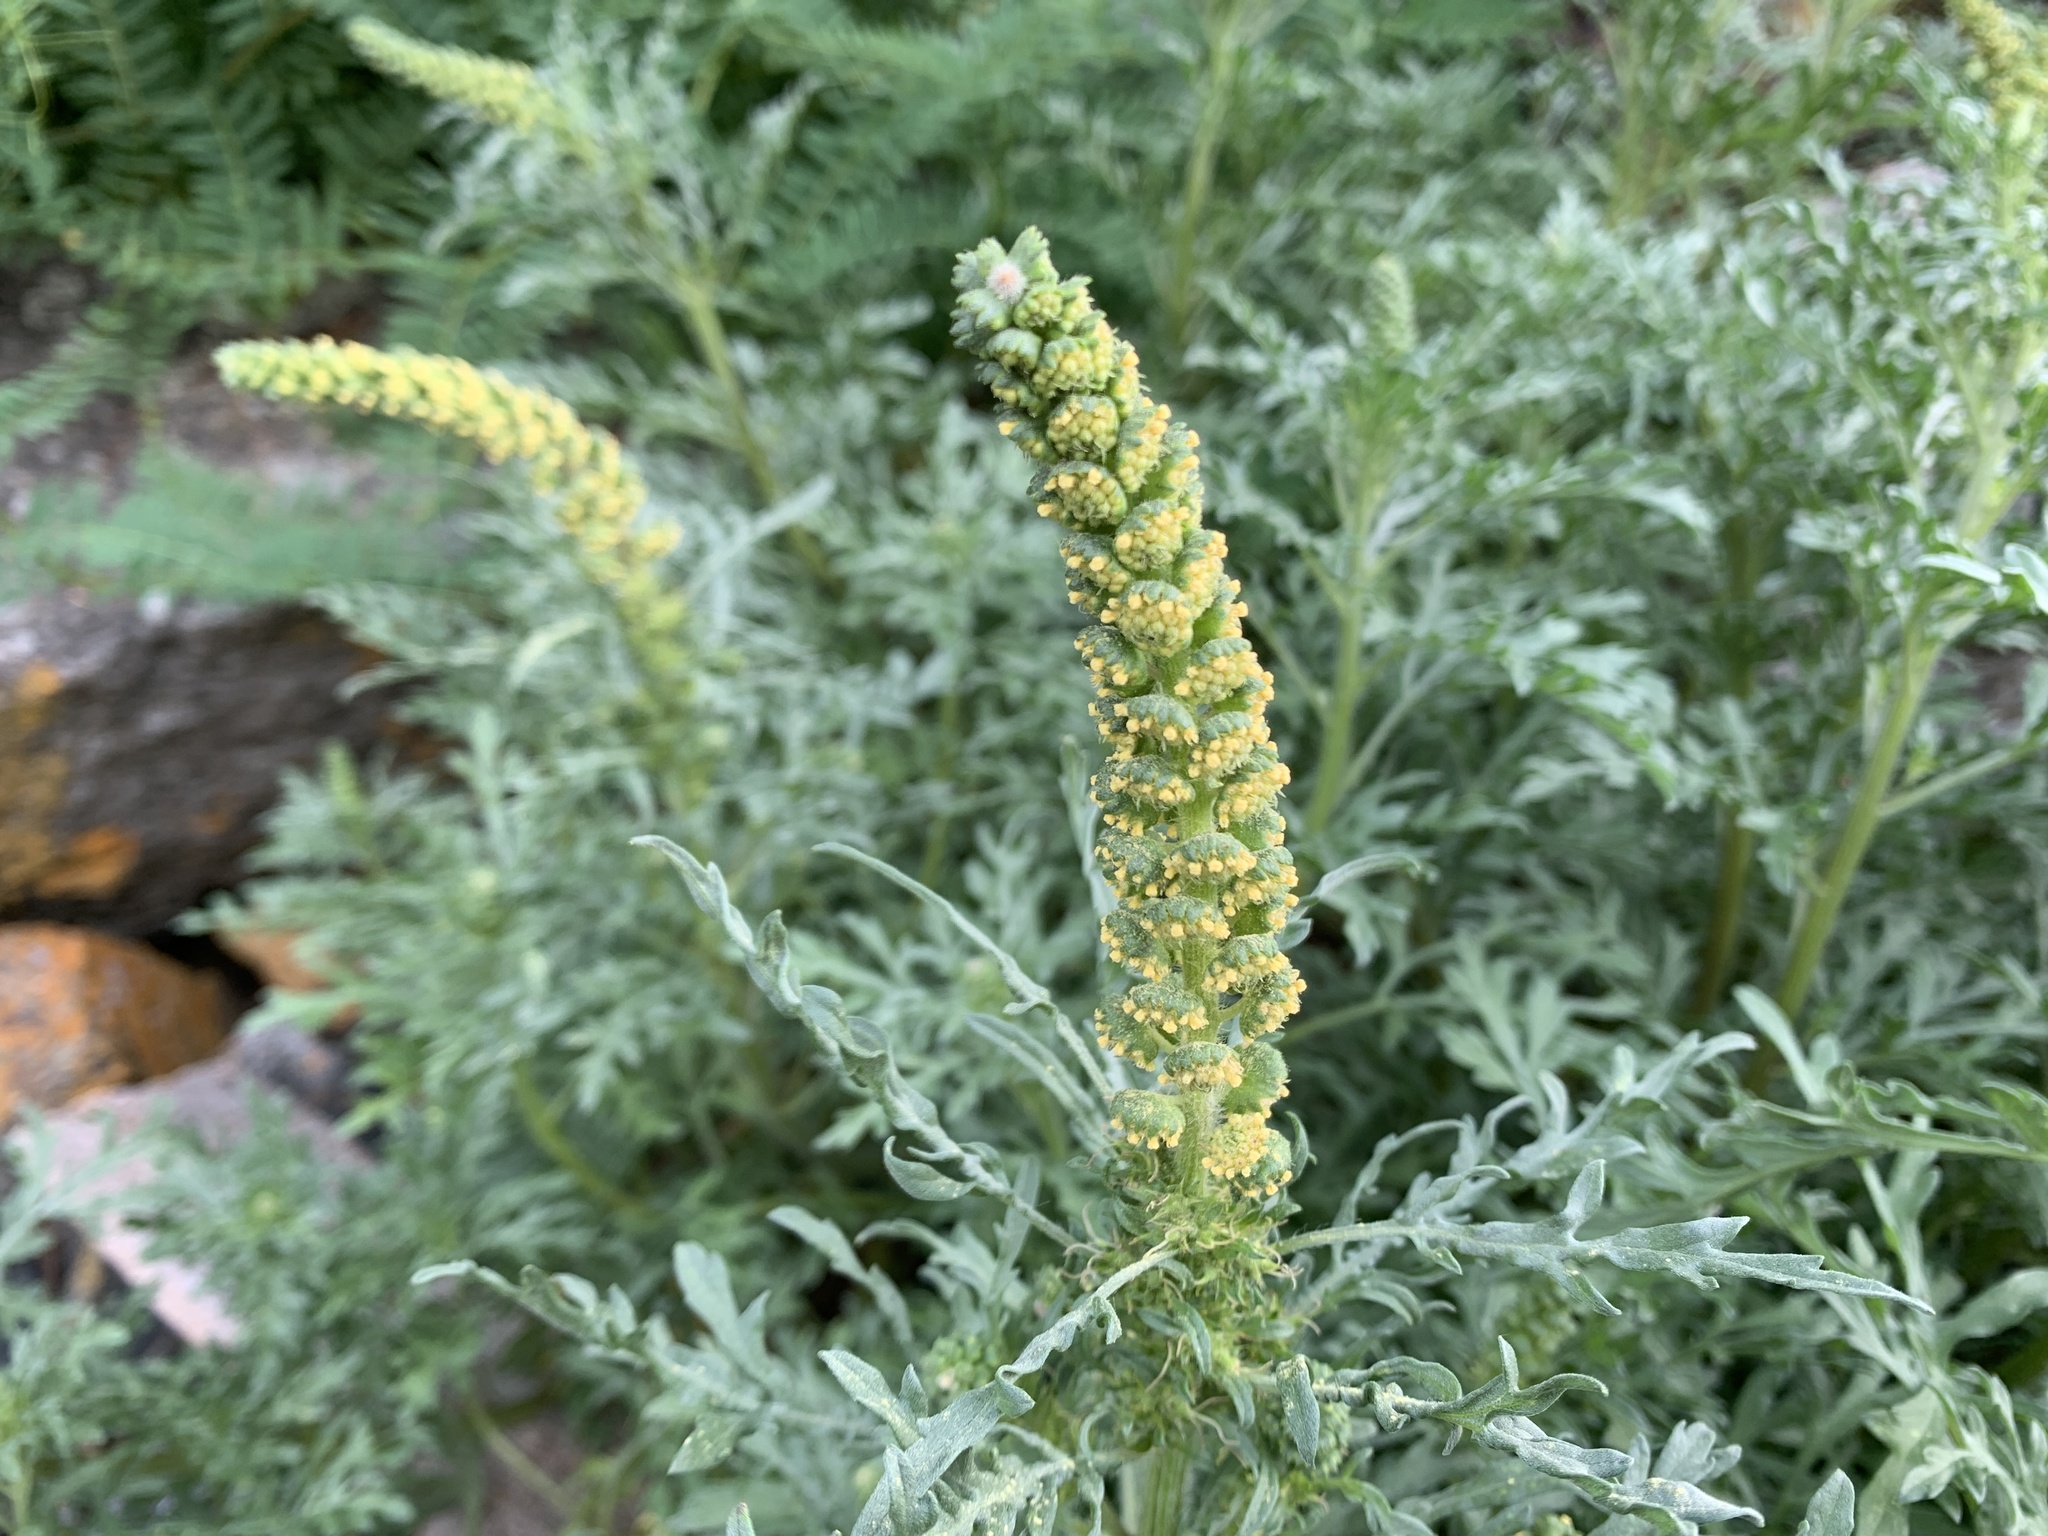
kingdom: Plantae
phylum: Tracheophyta
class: Magnoliopsida
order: Asterales
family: Asteraceae
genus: Ambrosia
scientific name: Ambrosia chamissonis
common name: Beachbur
